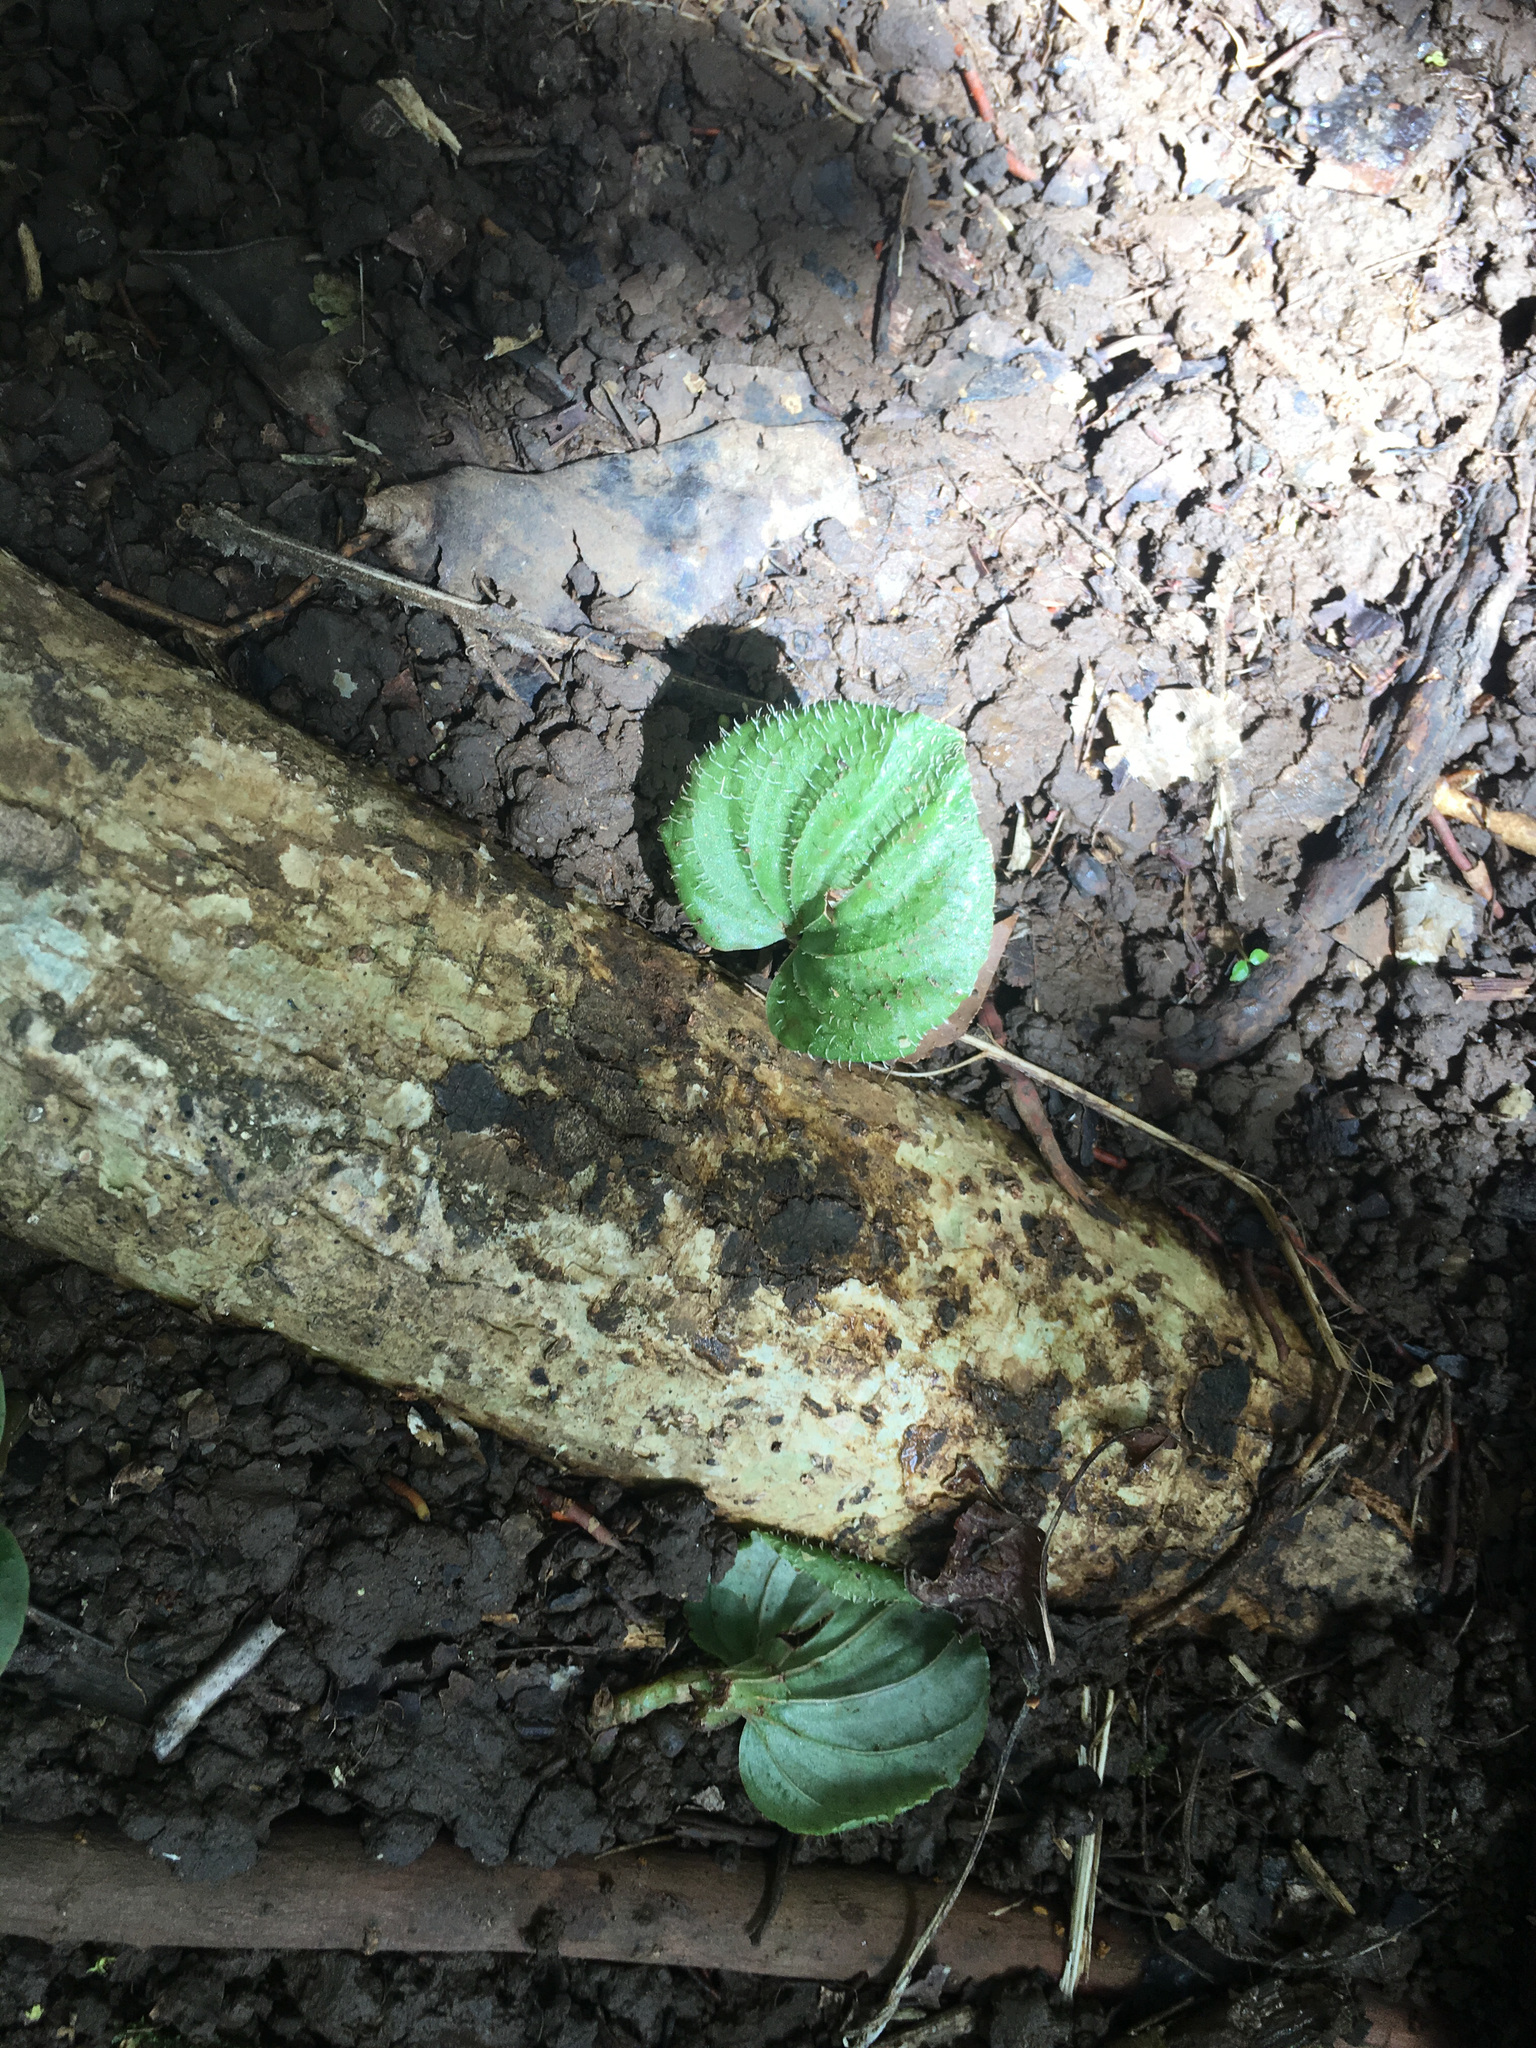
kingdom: Plantae
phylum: Tracheophyta
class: Liliopsida
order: Asparagales
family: Orchidaceae
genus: Nervilia
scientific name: Nervilia platychila
